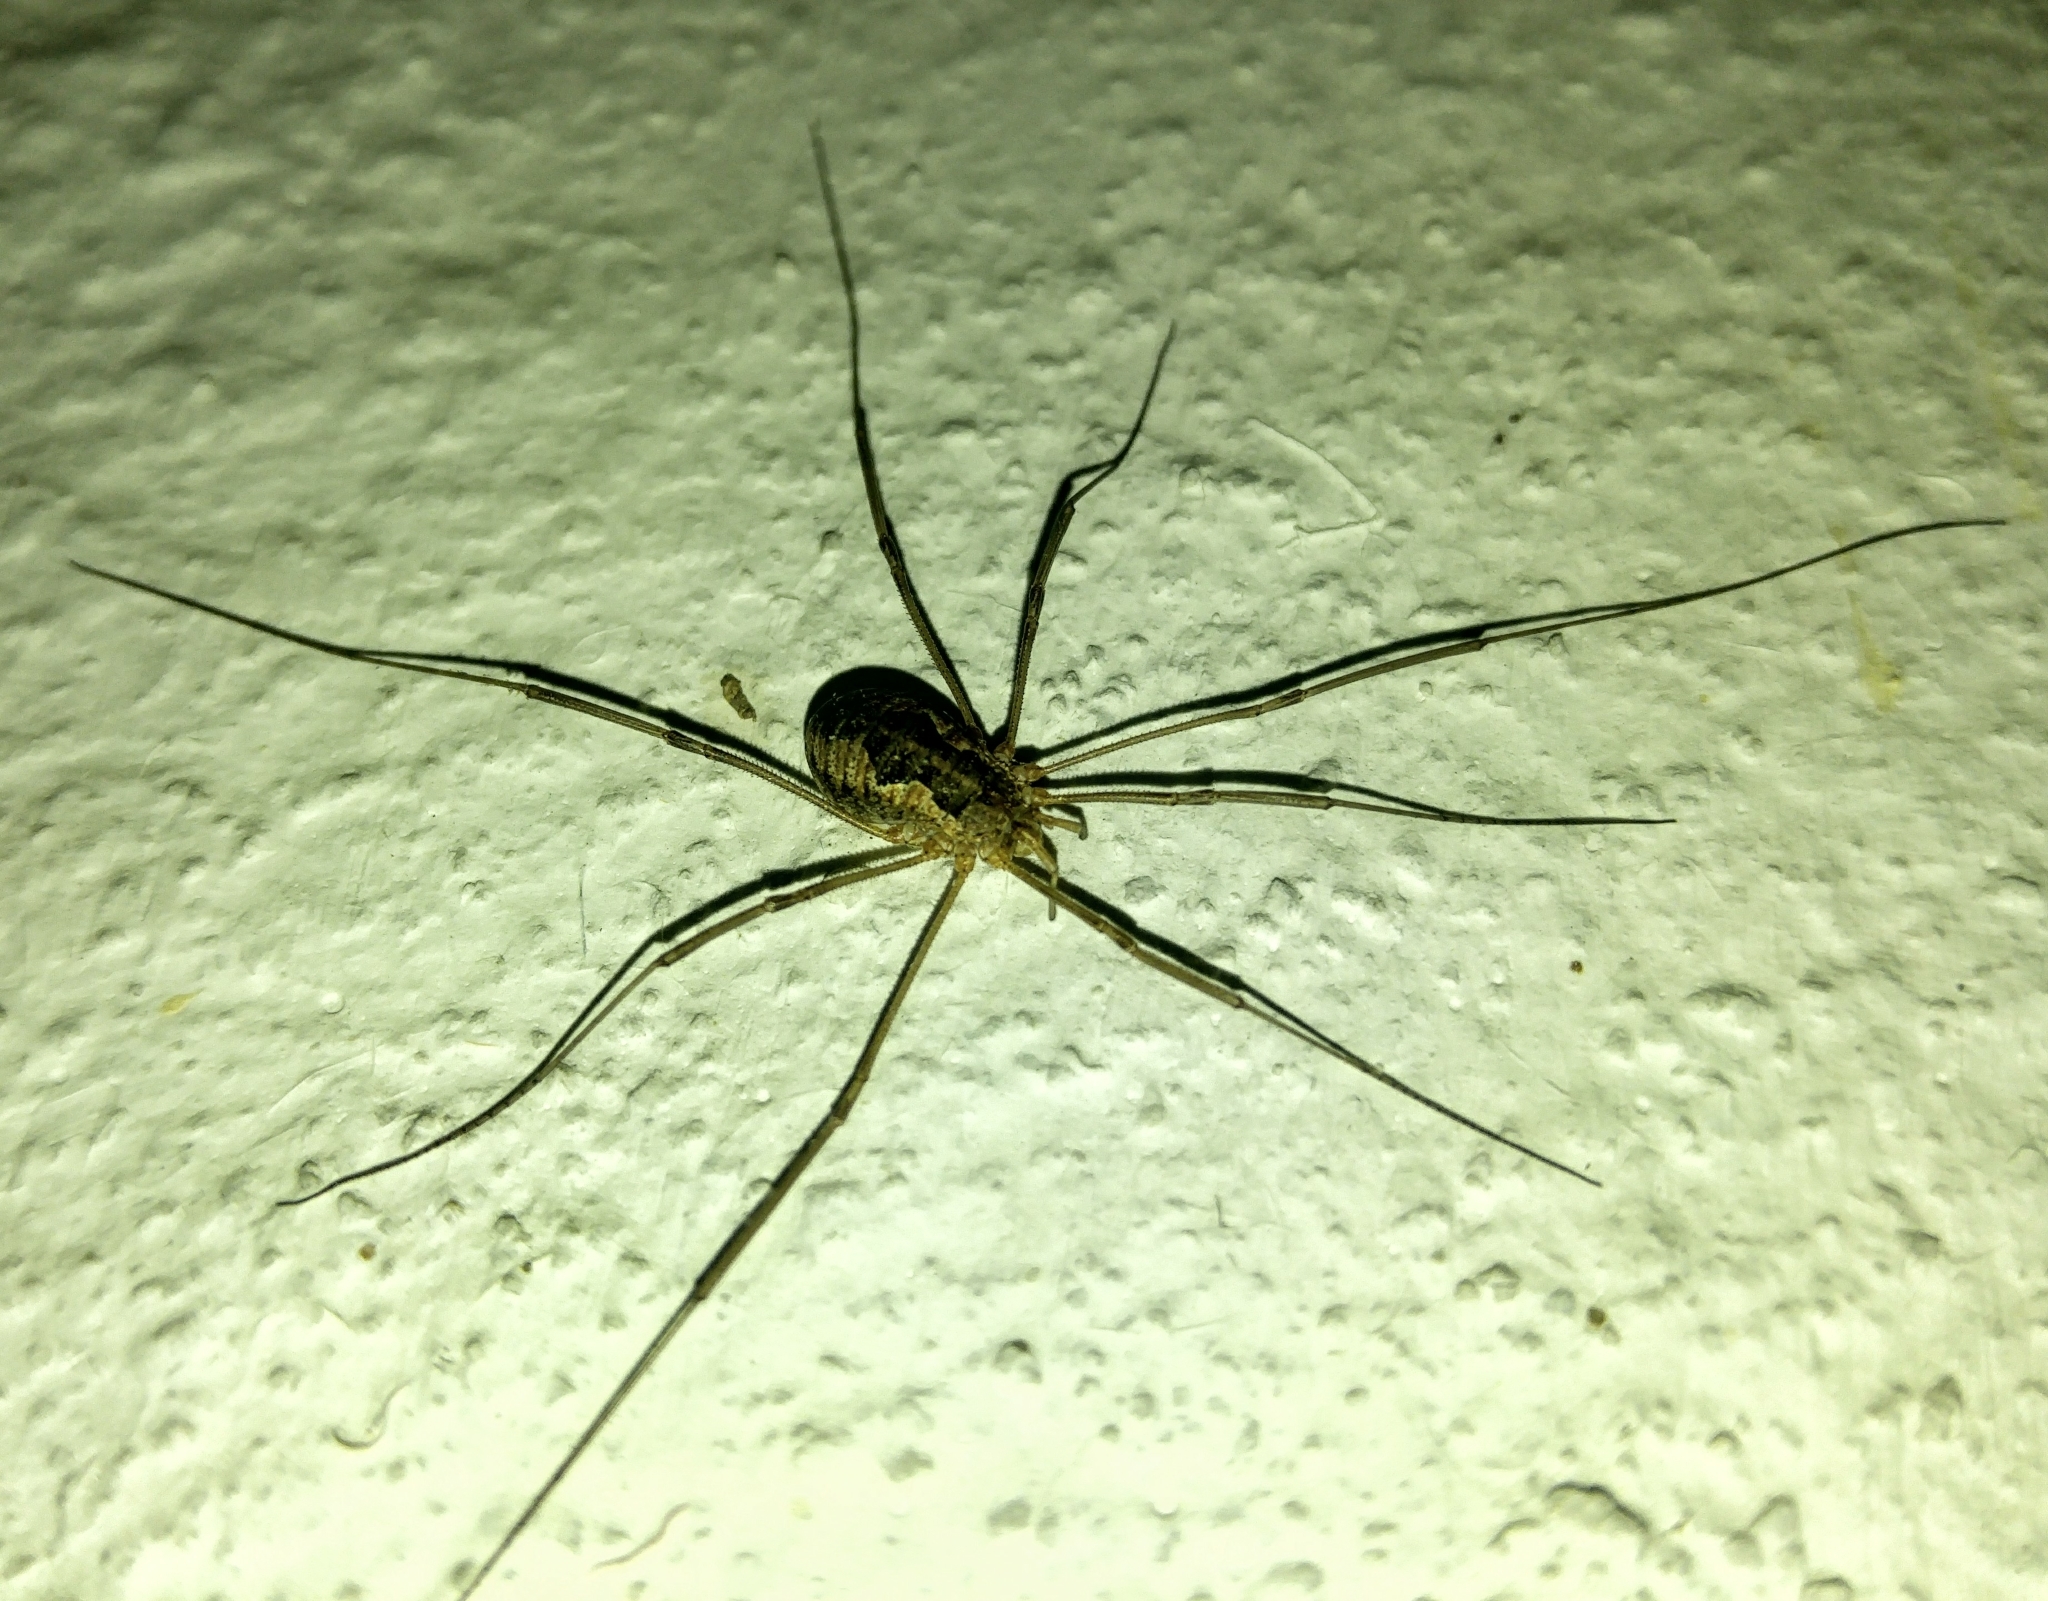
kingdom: Animalia
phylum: Arthropoda
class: Arachnida
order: Opiliones
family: Phalangiidae
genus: Phalangium
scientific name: Phalangium opilio
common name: Daddy longleg
